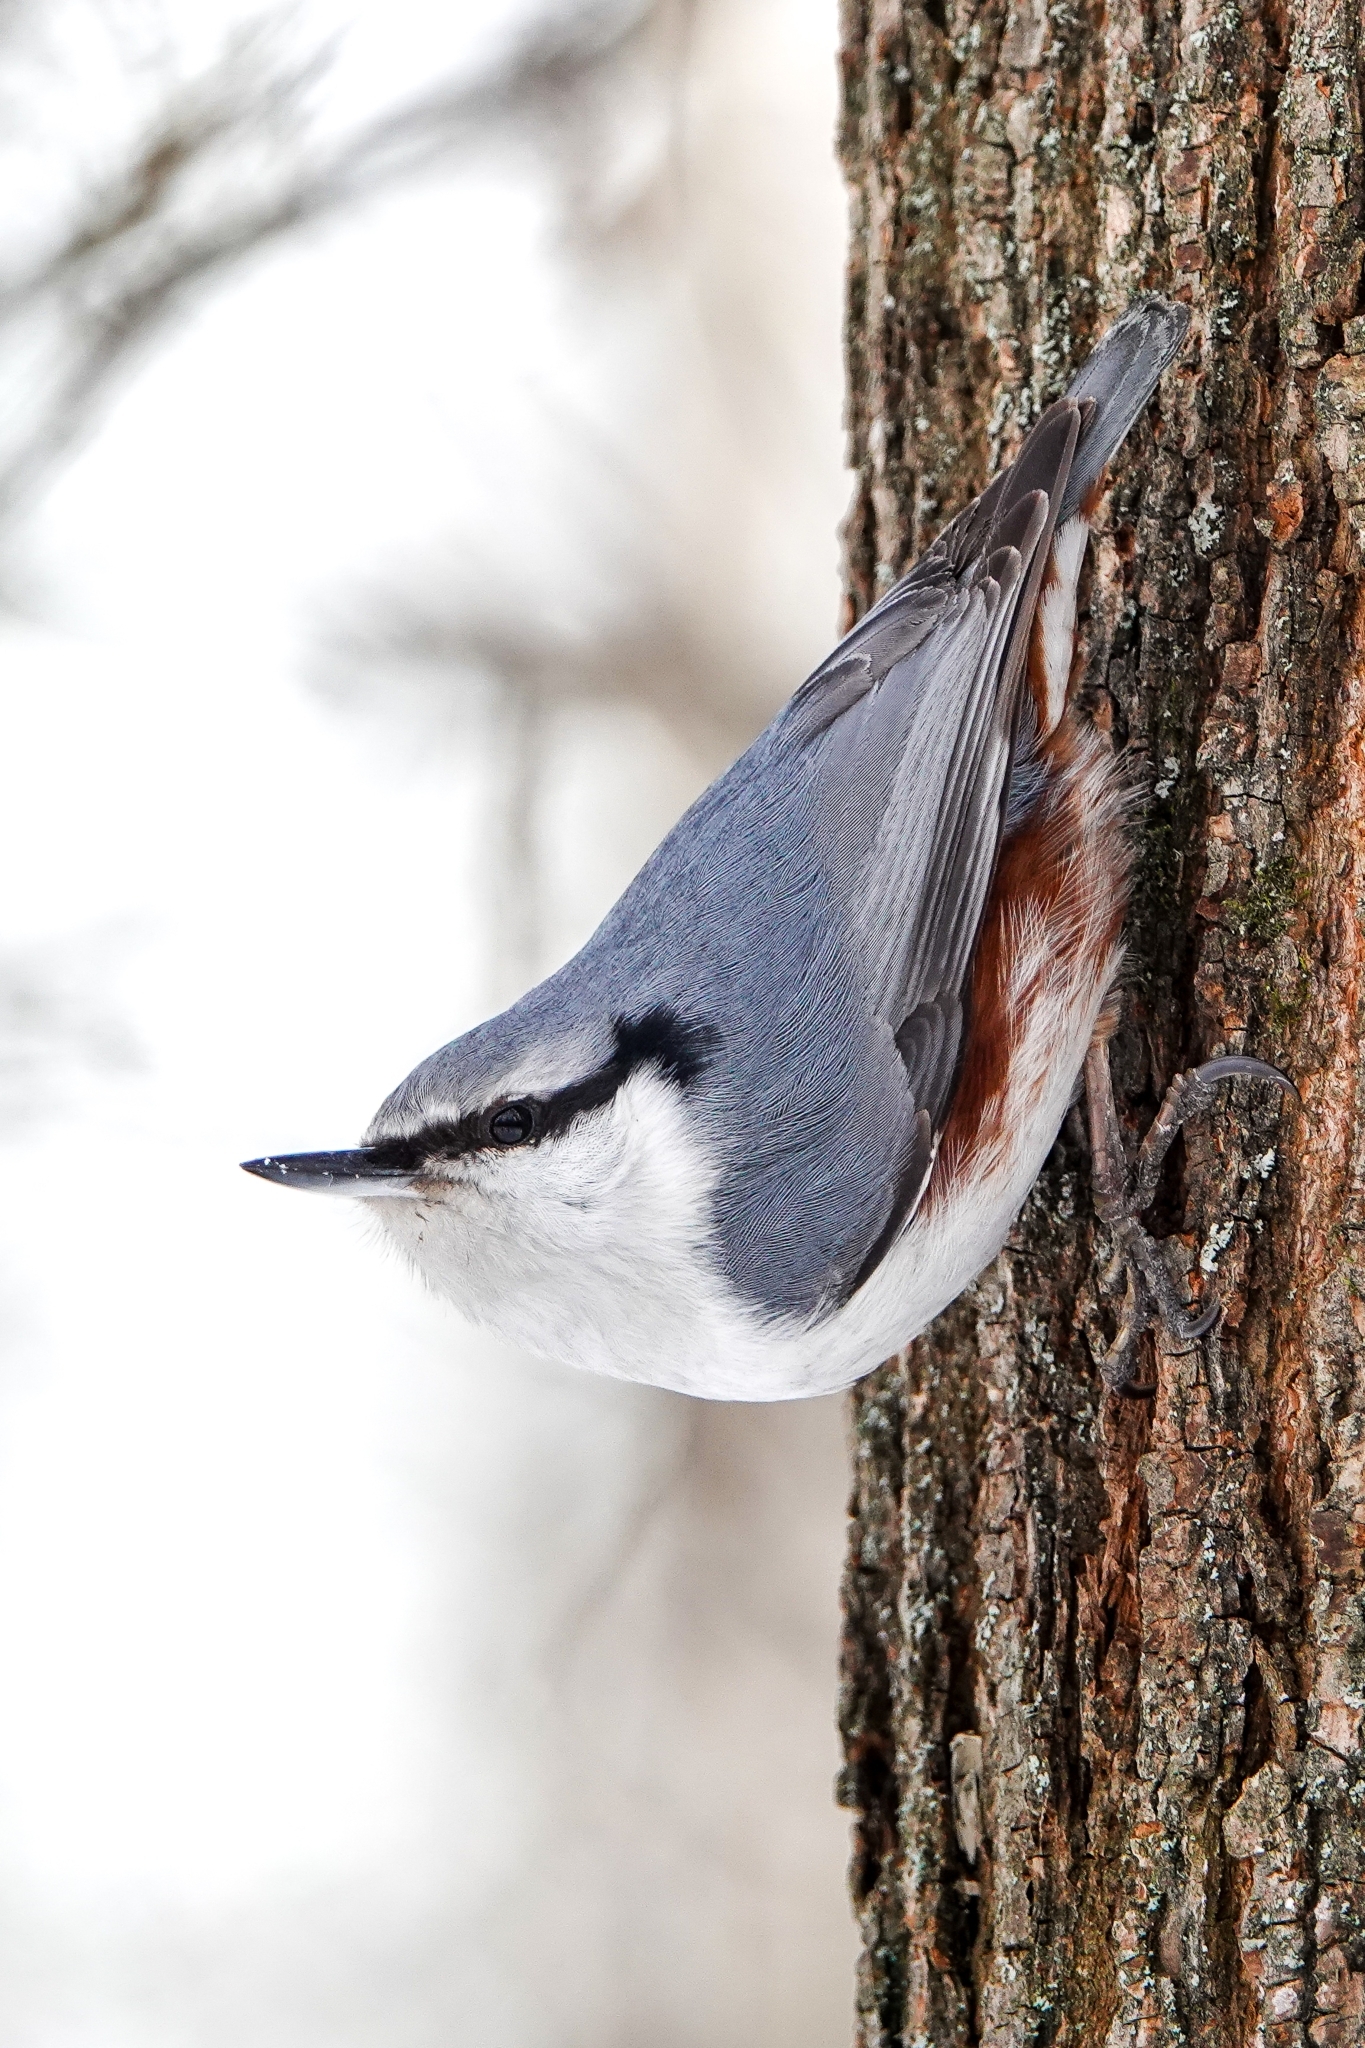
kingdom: Animalia
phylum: Chordata
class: Aves
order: Passeriformes
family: Sittidae
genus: Sitta
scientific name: Sitta europaea
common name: Eurasian nuthatch
